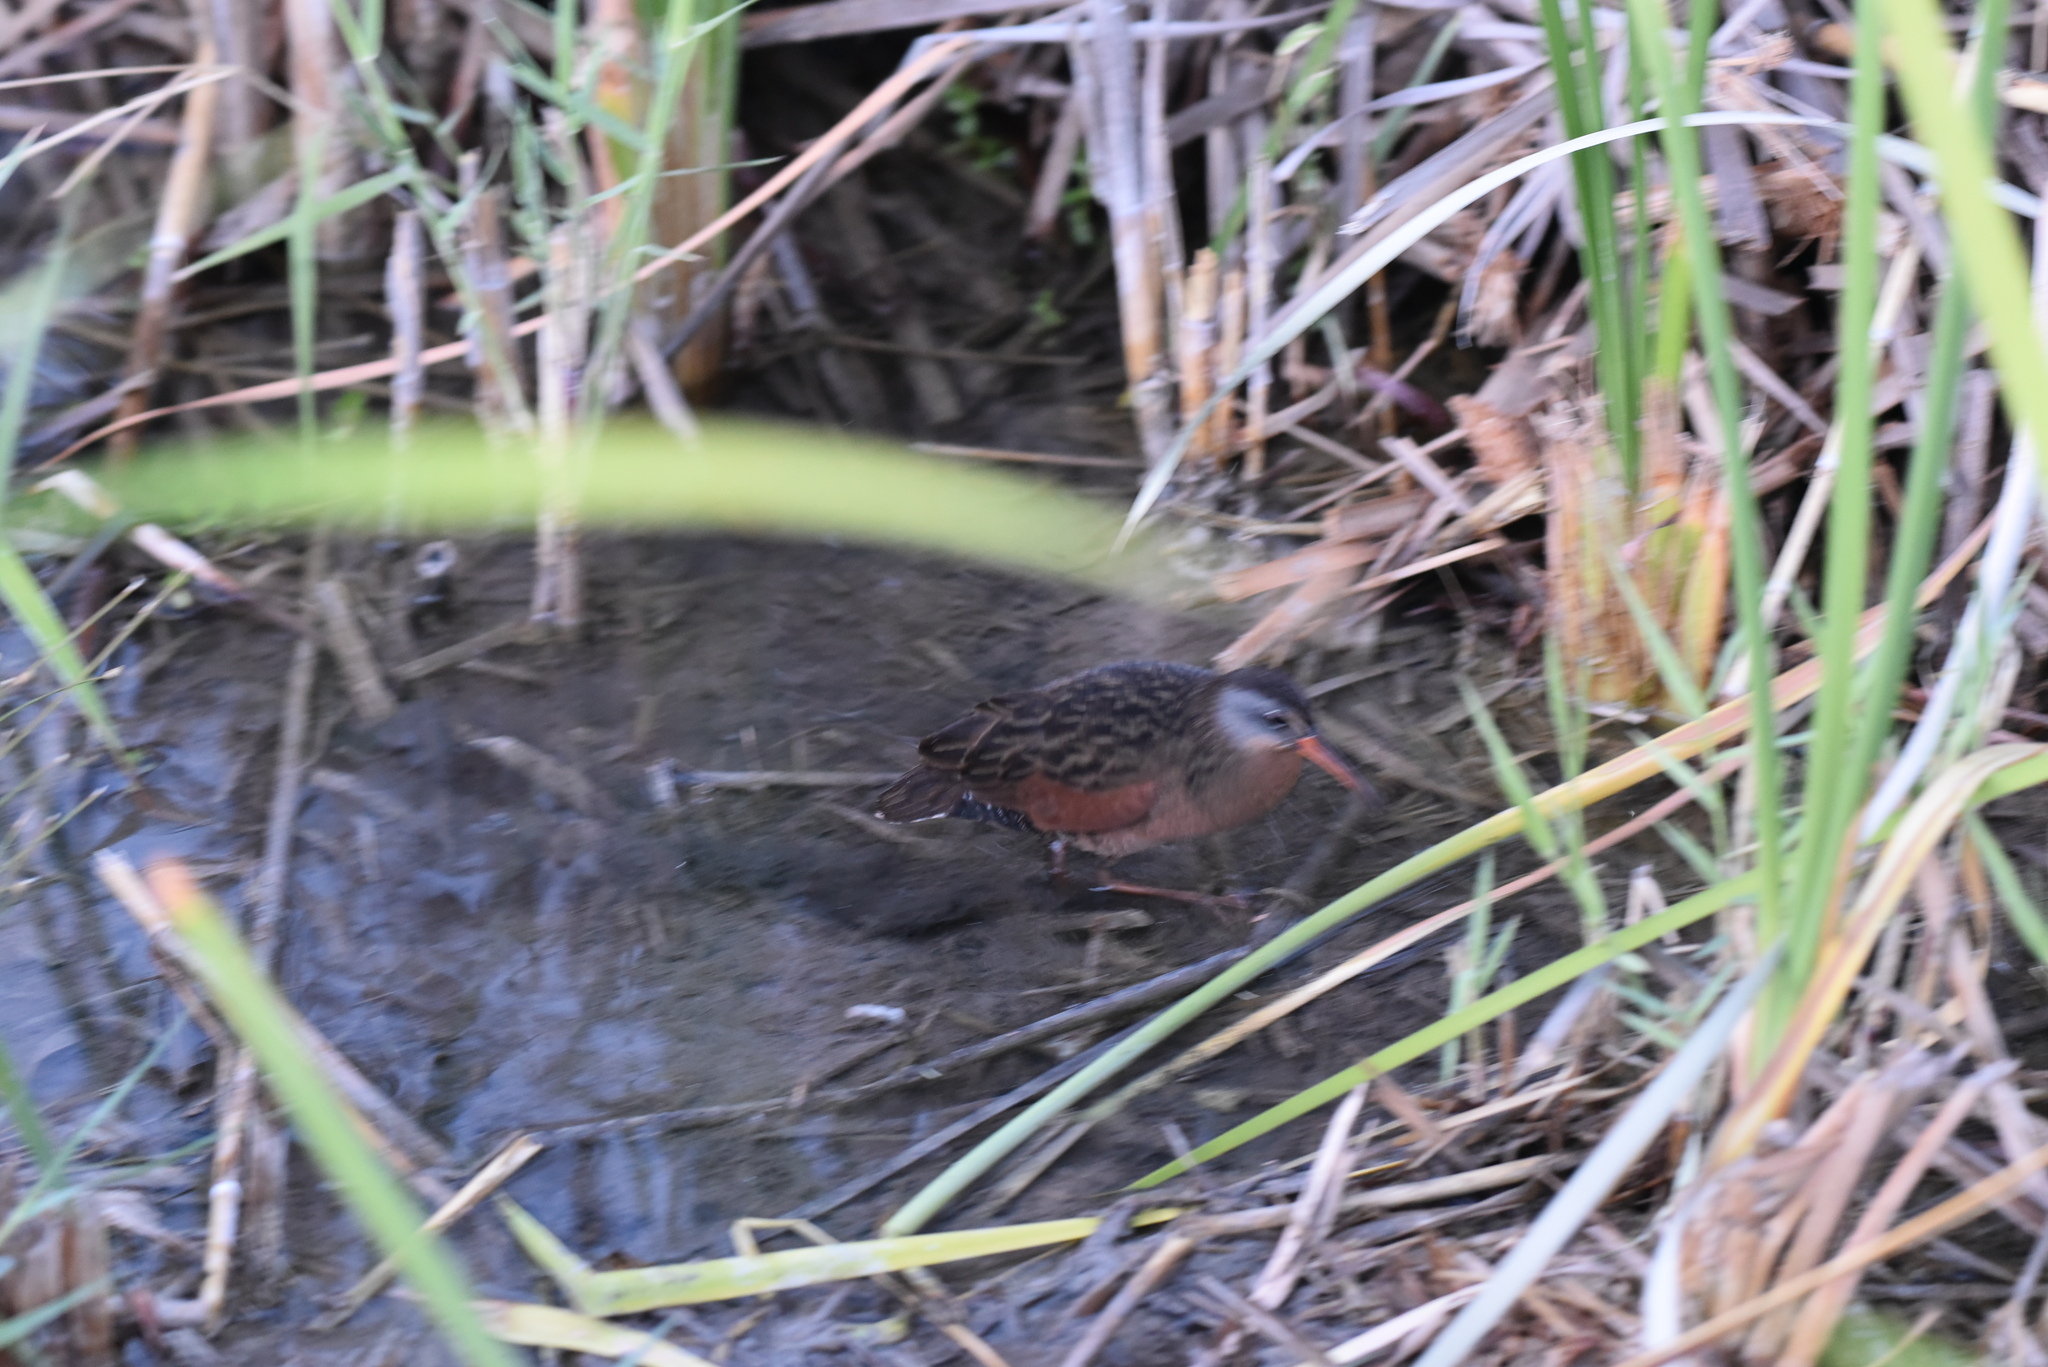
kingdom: Animalia
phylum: Chordata
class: Aves
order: Gruiformes
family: Rallidae
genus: Rallus
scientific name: Rallus limicola
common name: Virginia rail
